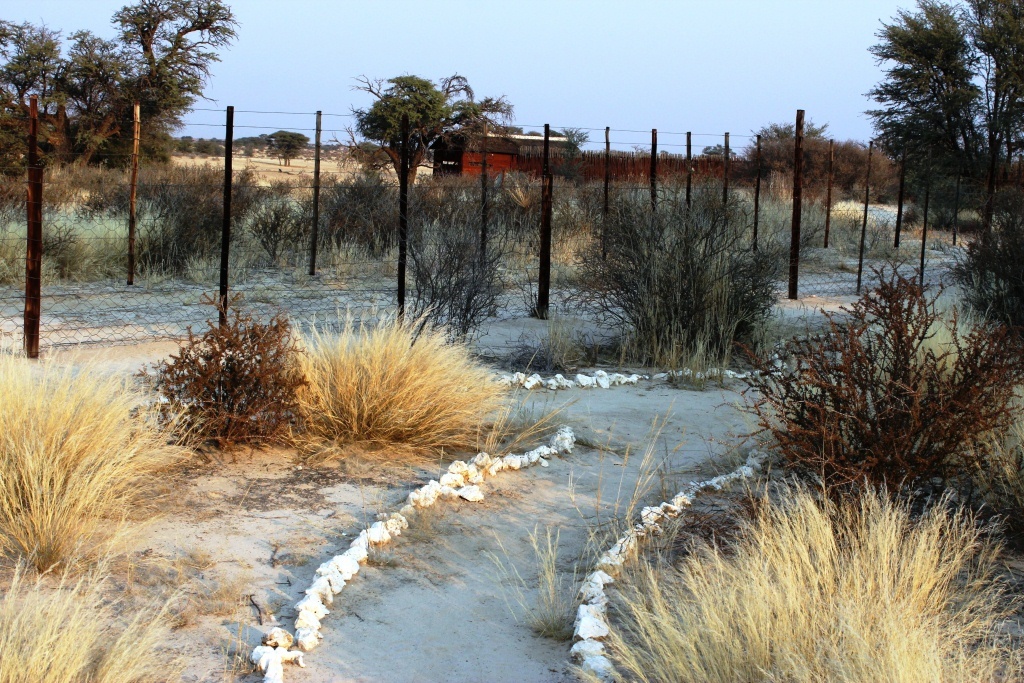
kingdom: Plantae
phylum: Tracheophyta
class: Magnoliopsida
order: Lamiales
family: Bignoniaceae
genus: Rhigozum
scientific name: Rhigozum trichotomum
